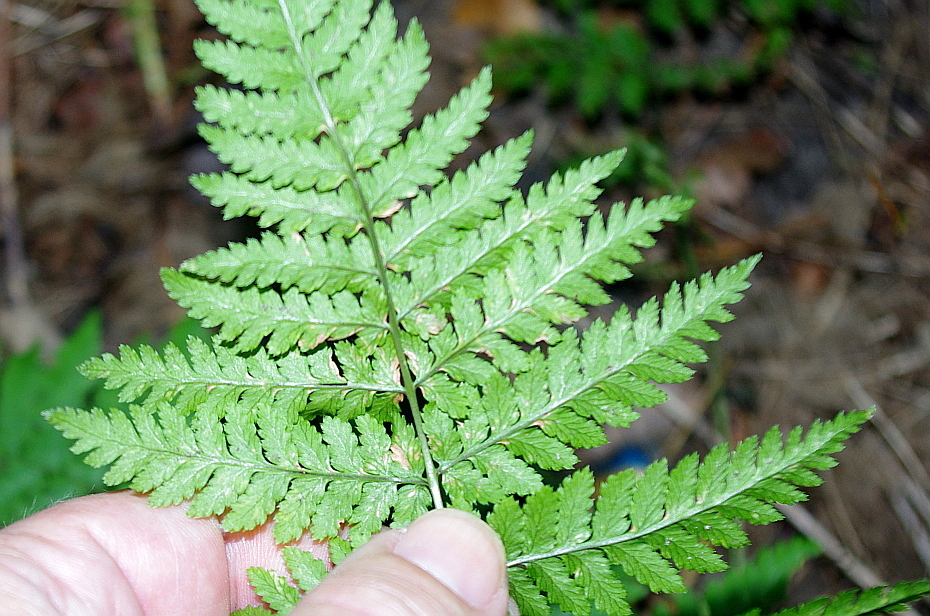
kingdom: Plantae
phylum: Tracheophyta
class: Polypodiopsida
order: Polypodiales
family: Dryopteridaceae
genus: Dryopteris
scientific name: Dryopteris carthusiana
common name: Narrow buckler-fern
